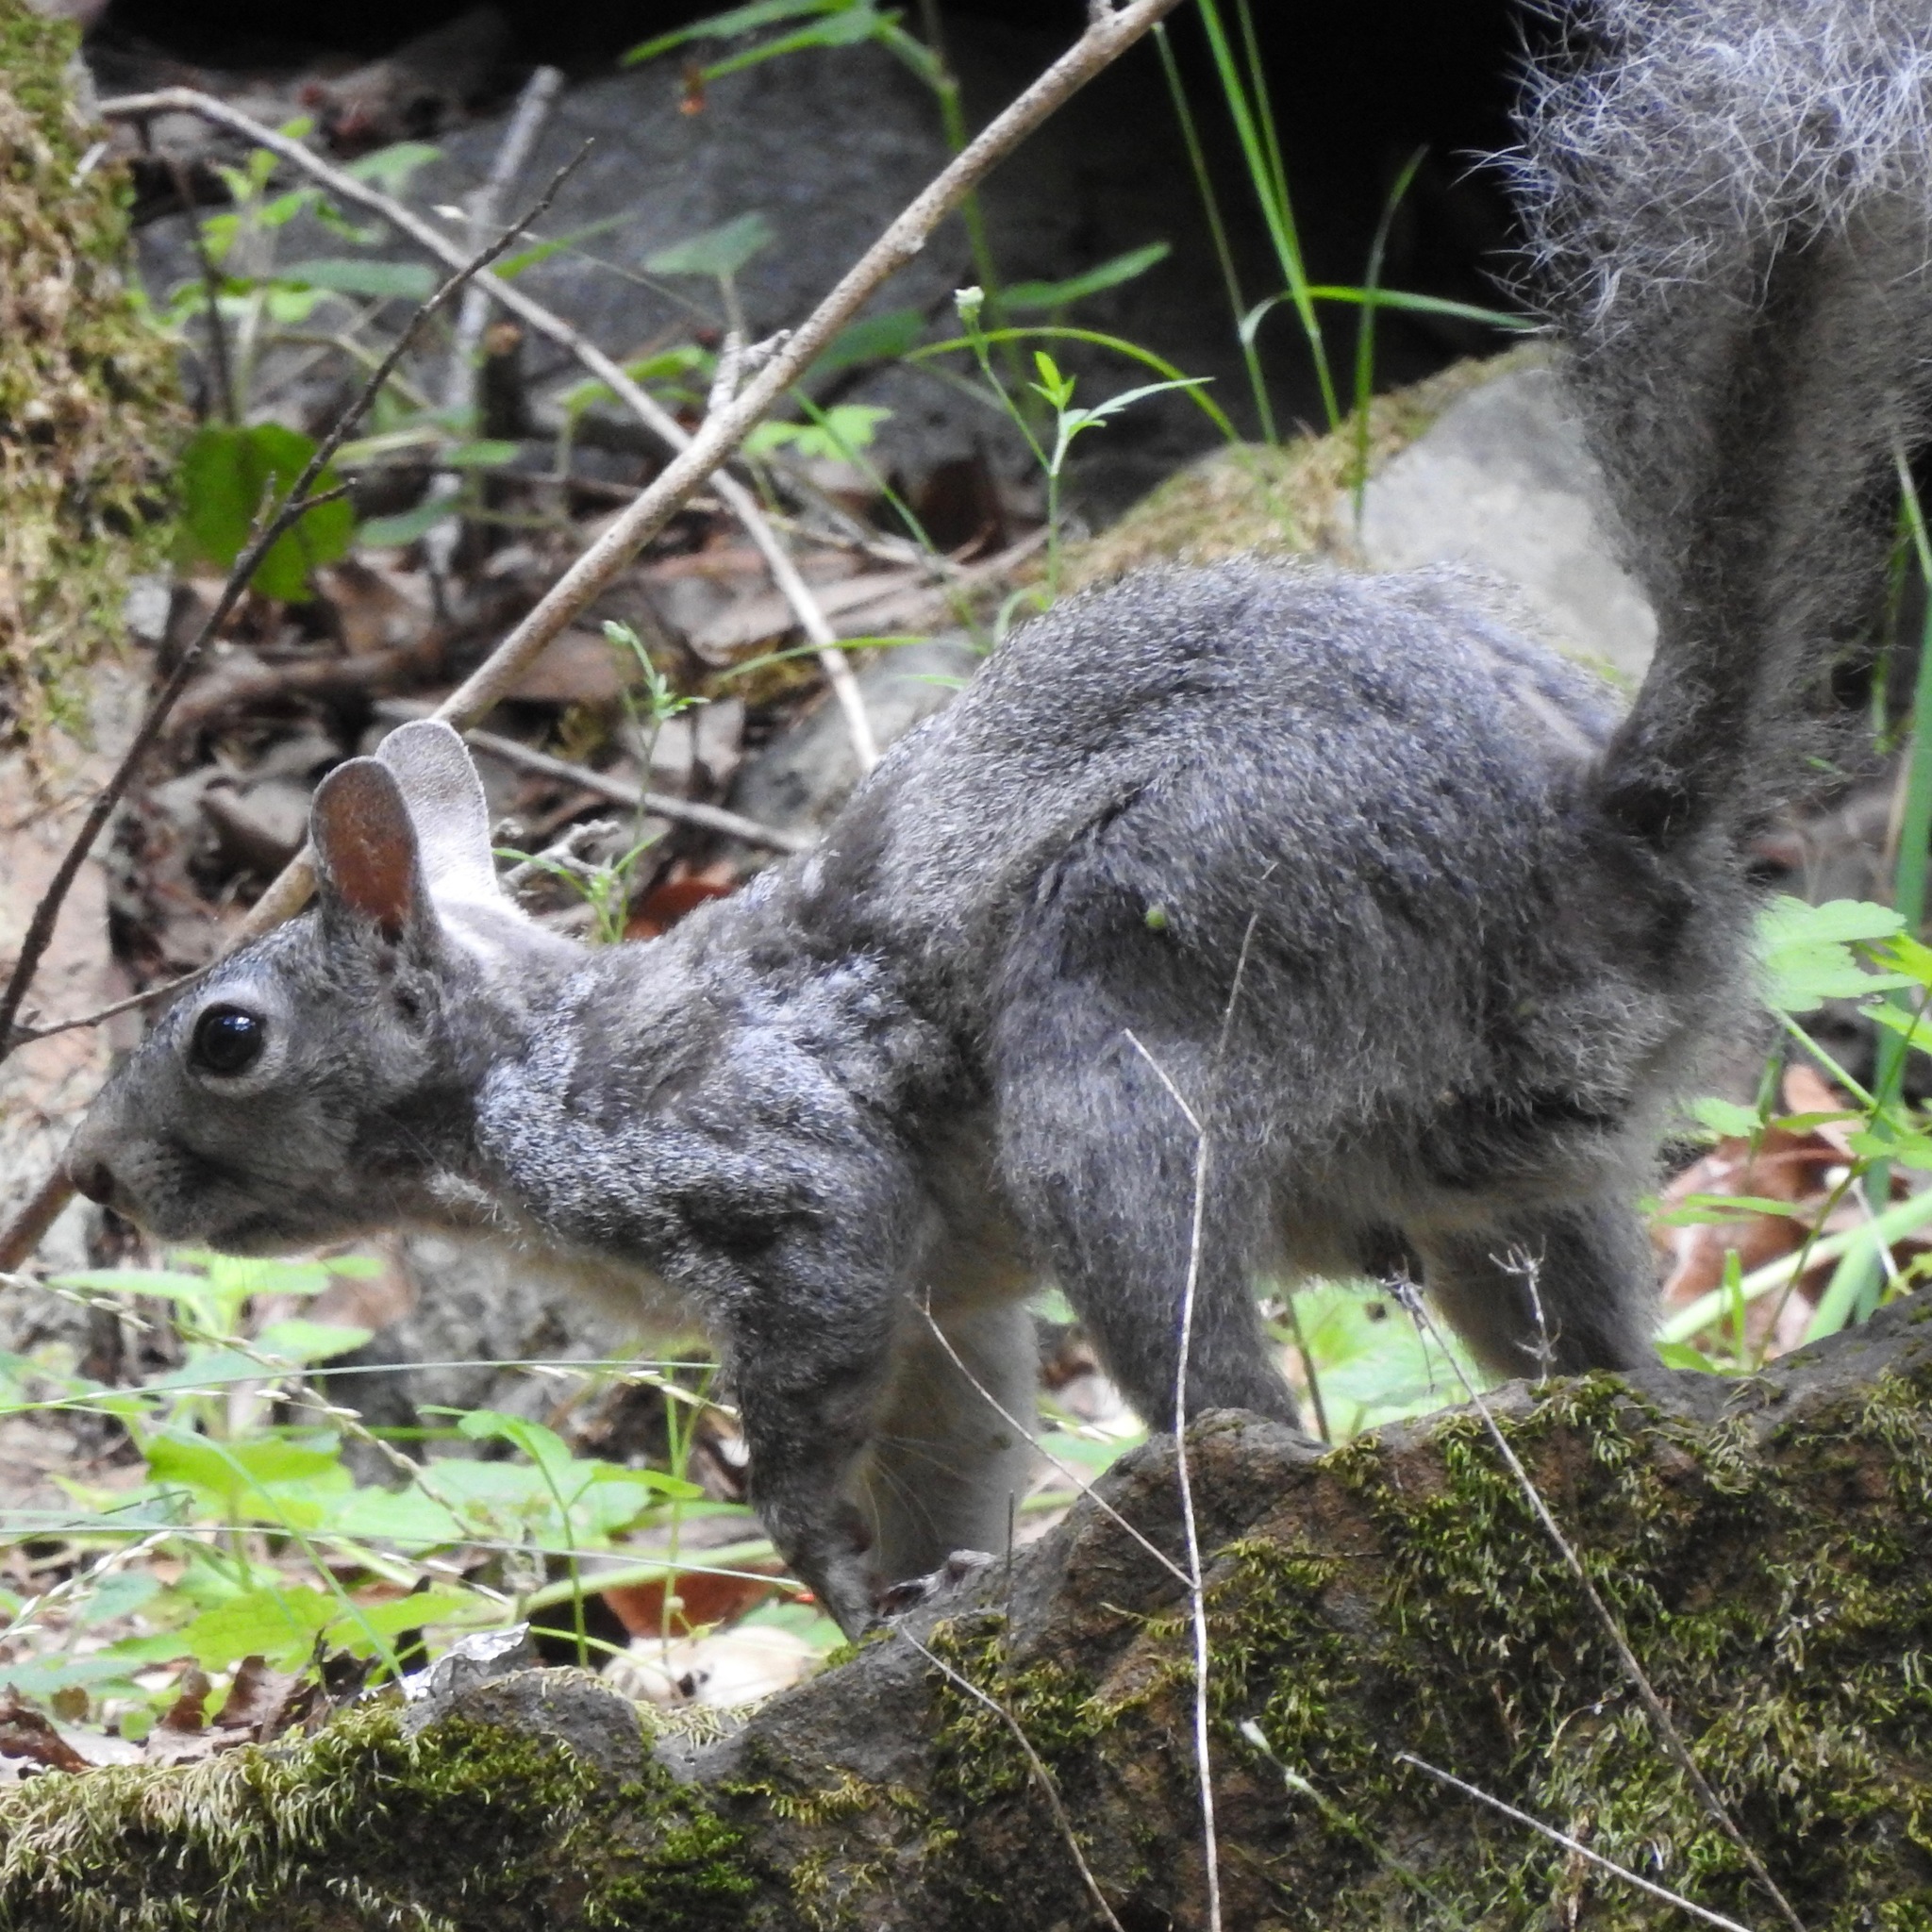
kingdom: Animalia
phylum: Chordata
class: Mammalia
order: Rodentia
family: Sciuridae
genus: Sciurus
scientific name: Sciurus griseus
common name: Western gray squirrel
